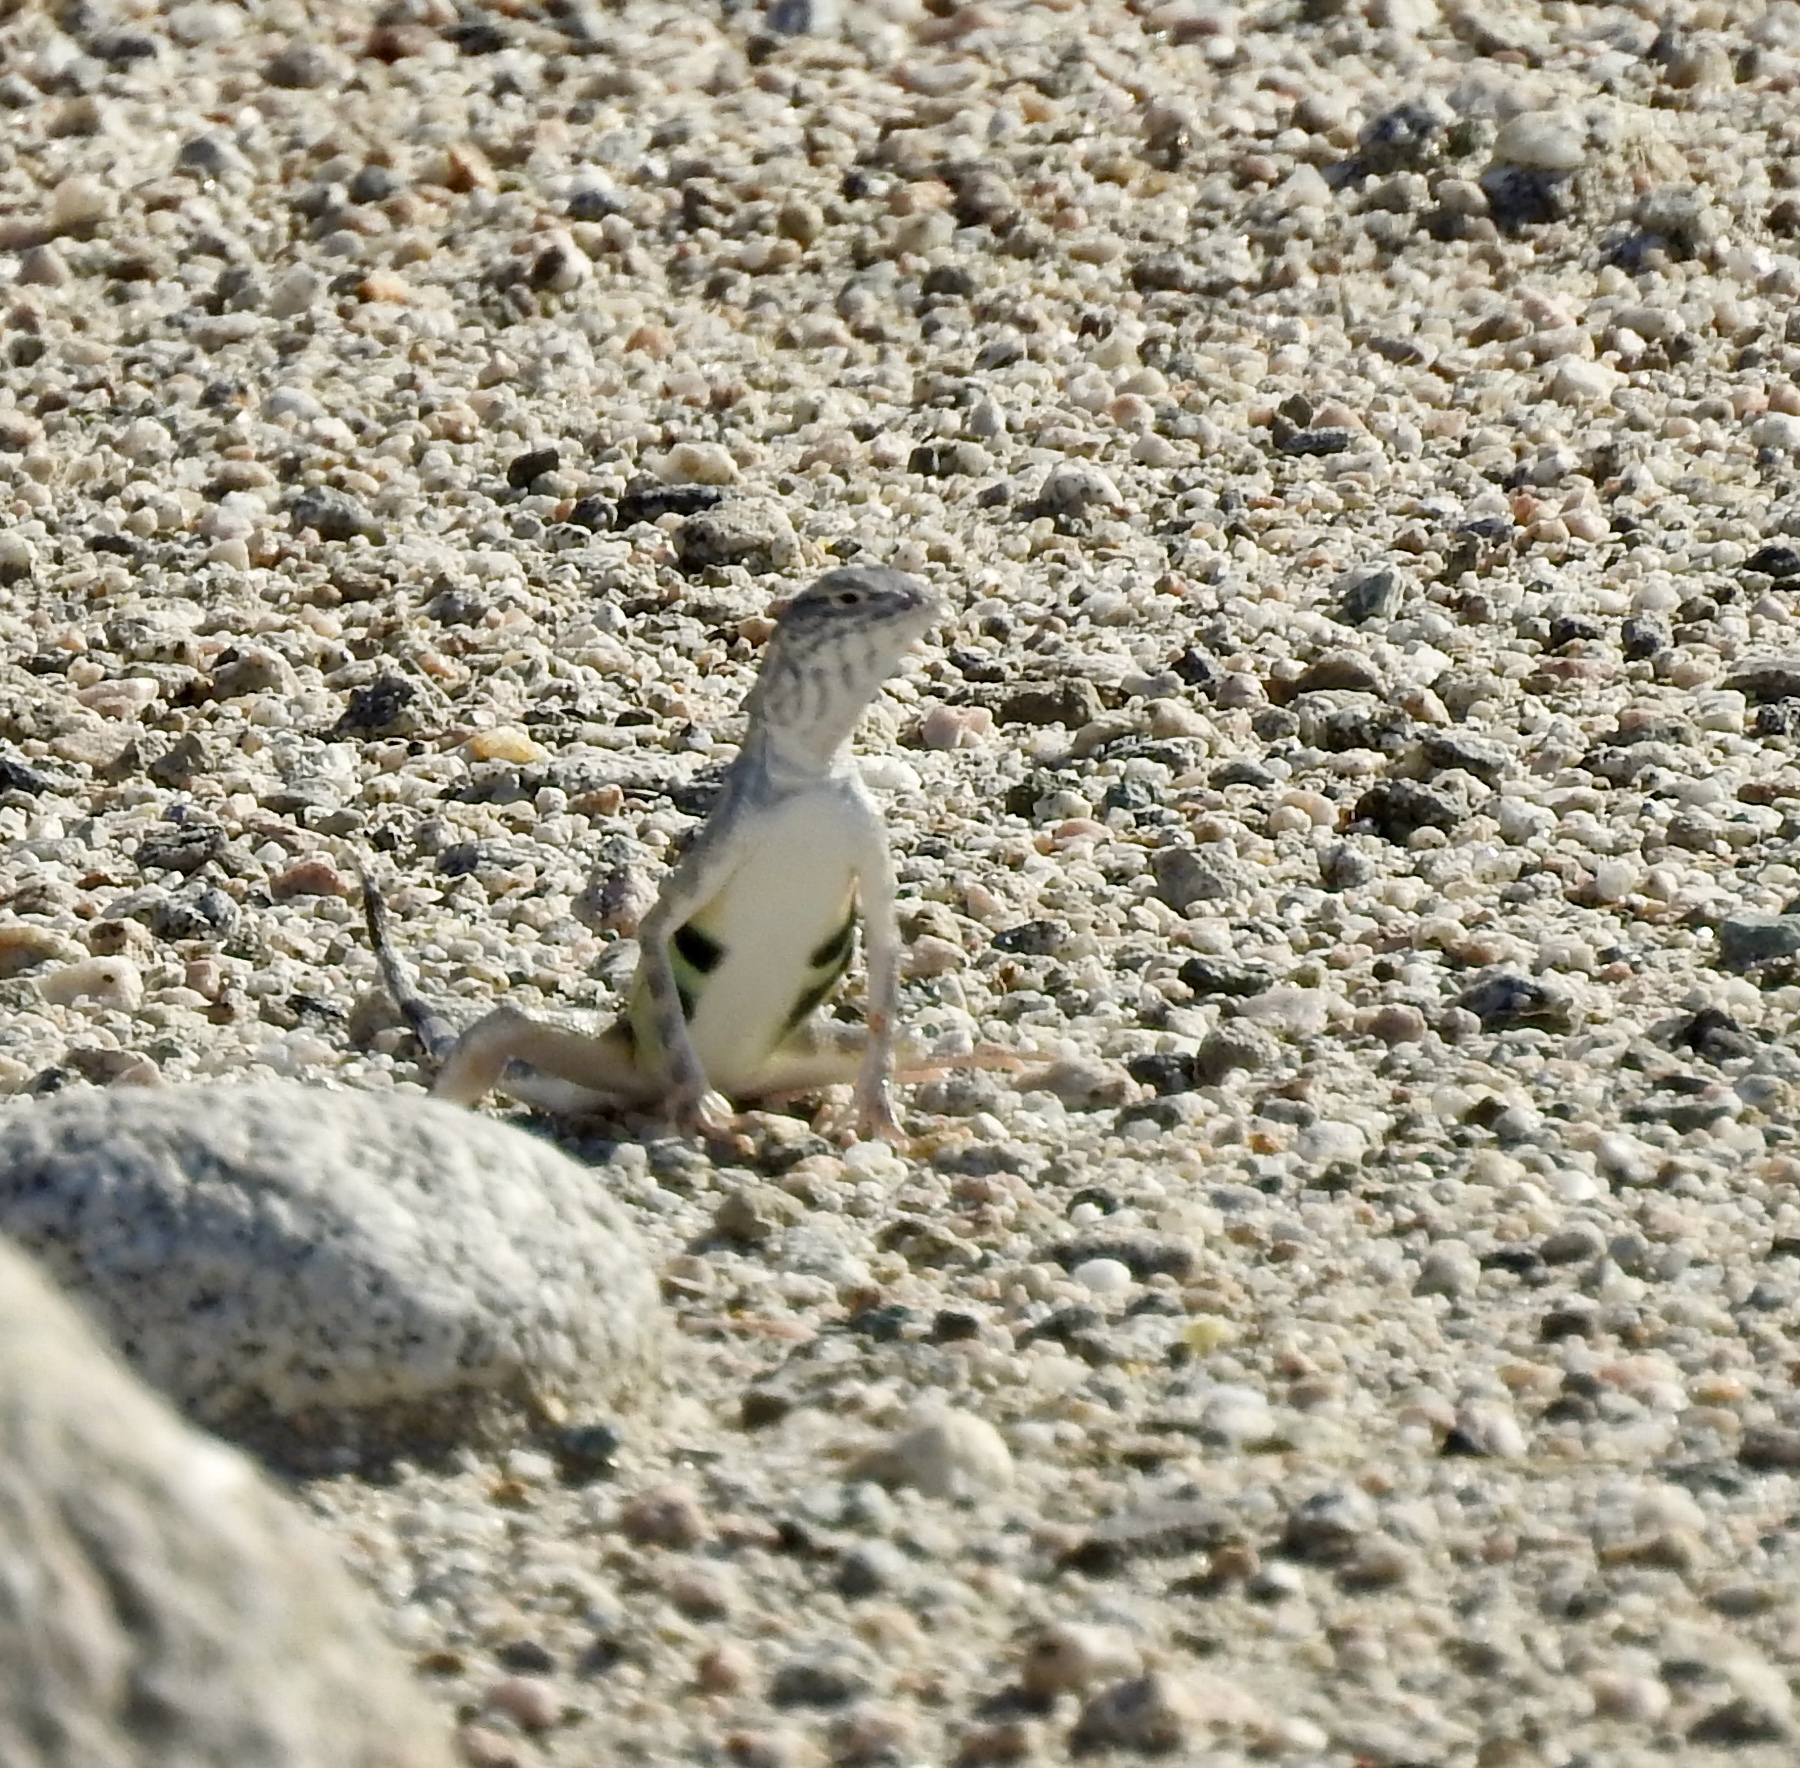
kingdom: Animalia
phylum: Chordata
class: Squamata
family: Phrynosomatidae
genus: Callisaurus
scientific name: Callisaurus draconoides
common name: Zebra-tailed lizard
